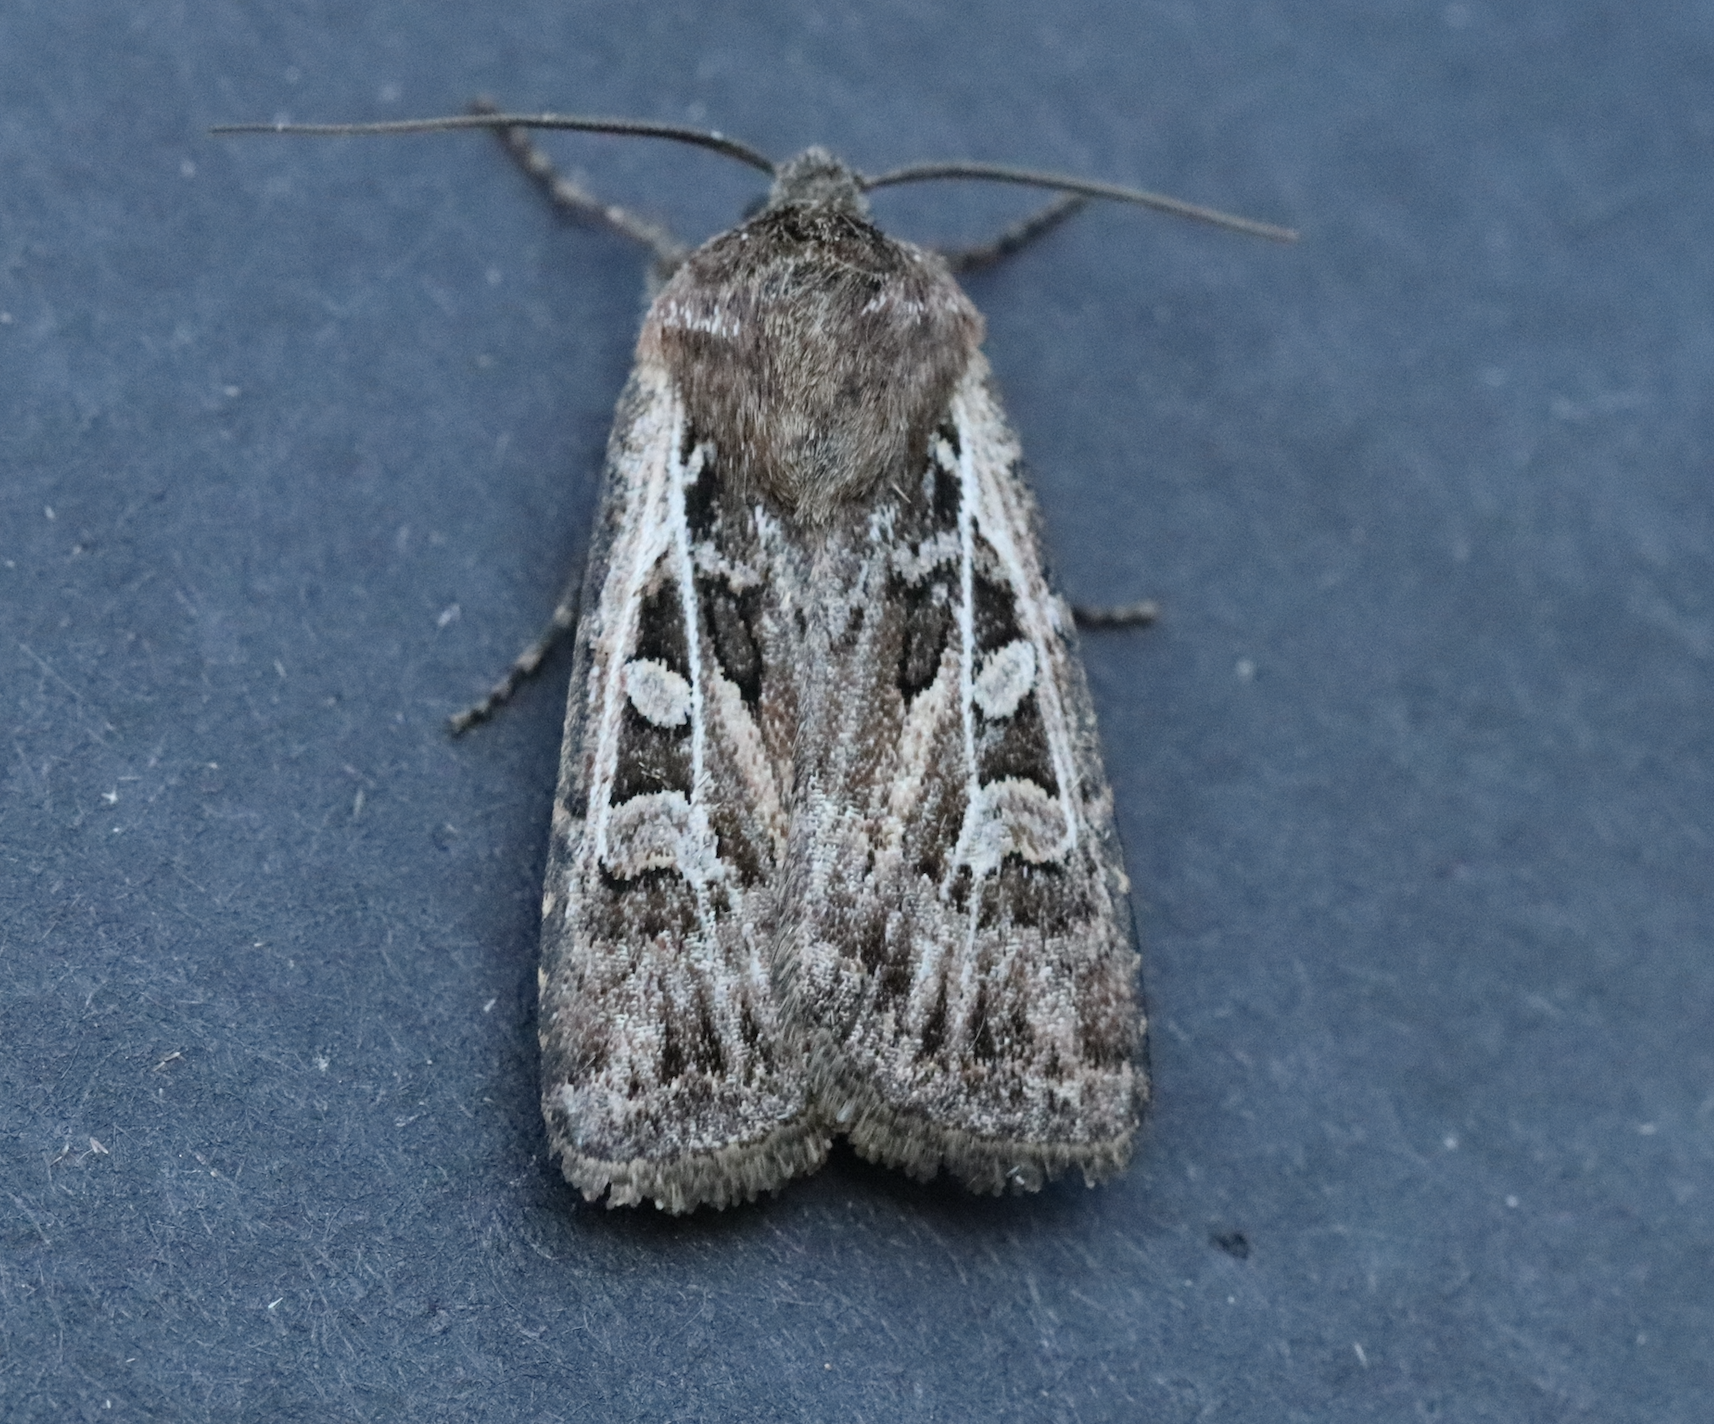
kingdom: Animalia
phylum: Arthropoda
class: Insecta
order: Lepidoptera
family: Noctuidae
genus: Euxoa
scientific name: Euxoa ridingsiana
